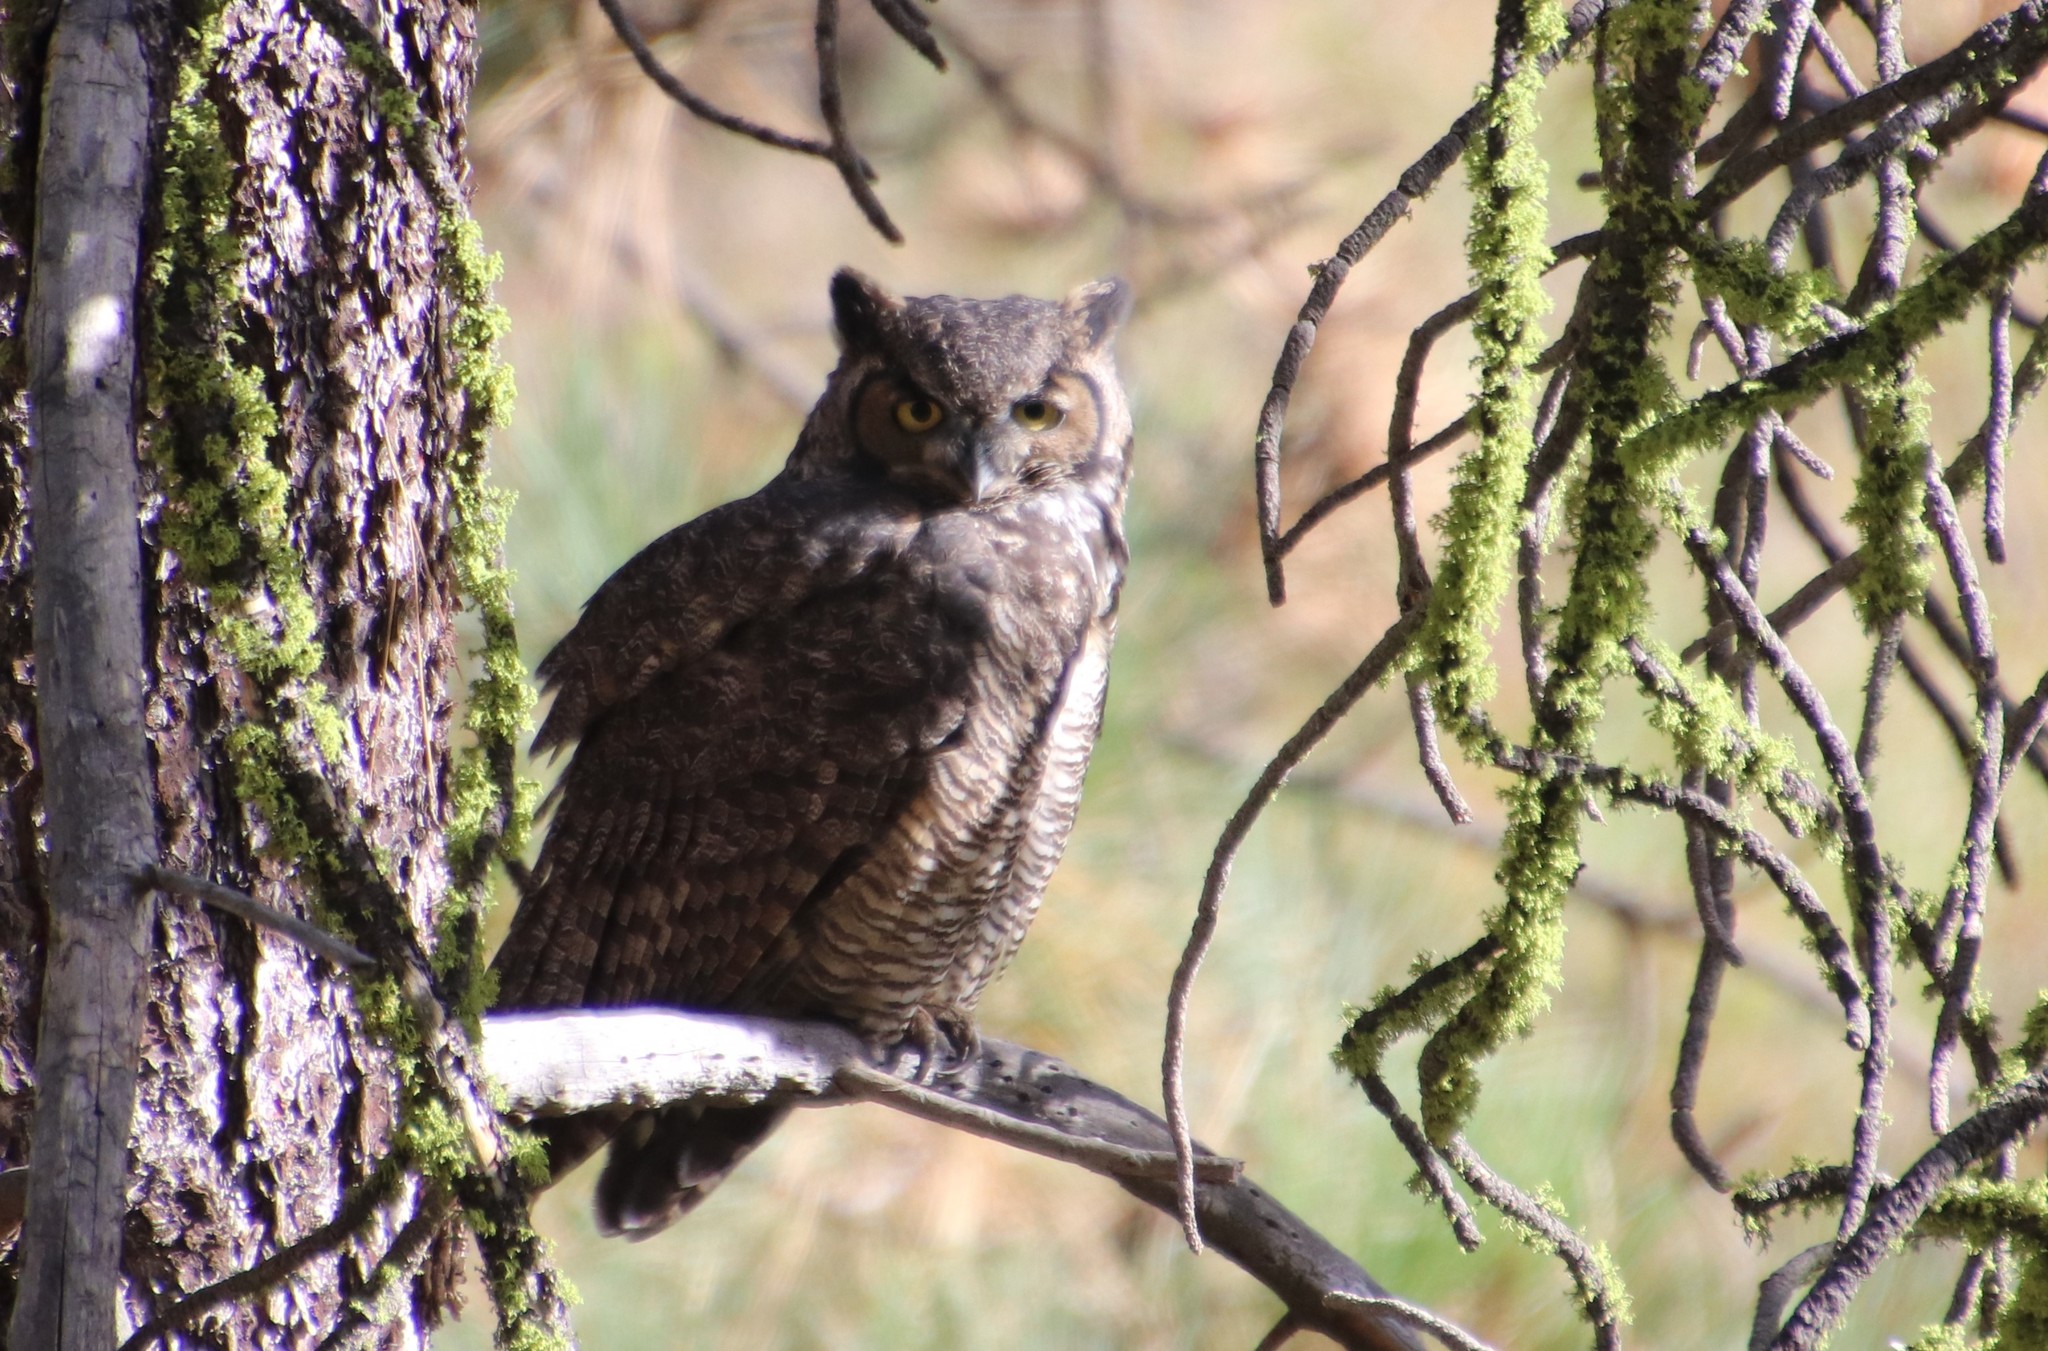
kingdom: Animalia
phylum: Chordata
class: Aves
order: Strigiformes
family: Strigidae
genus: Bubo
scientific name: Bubo virginianus
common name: Great horned owl
